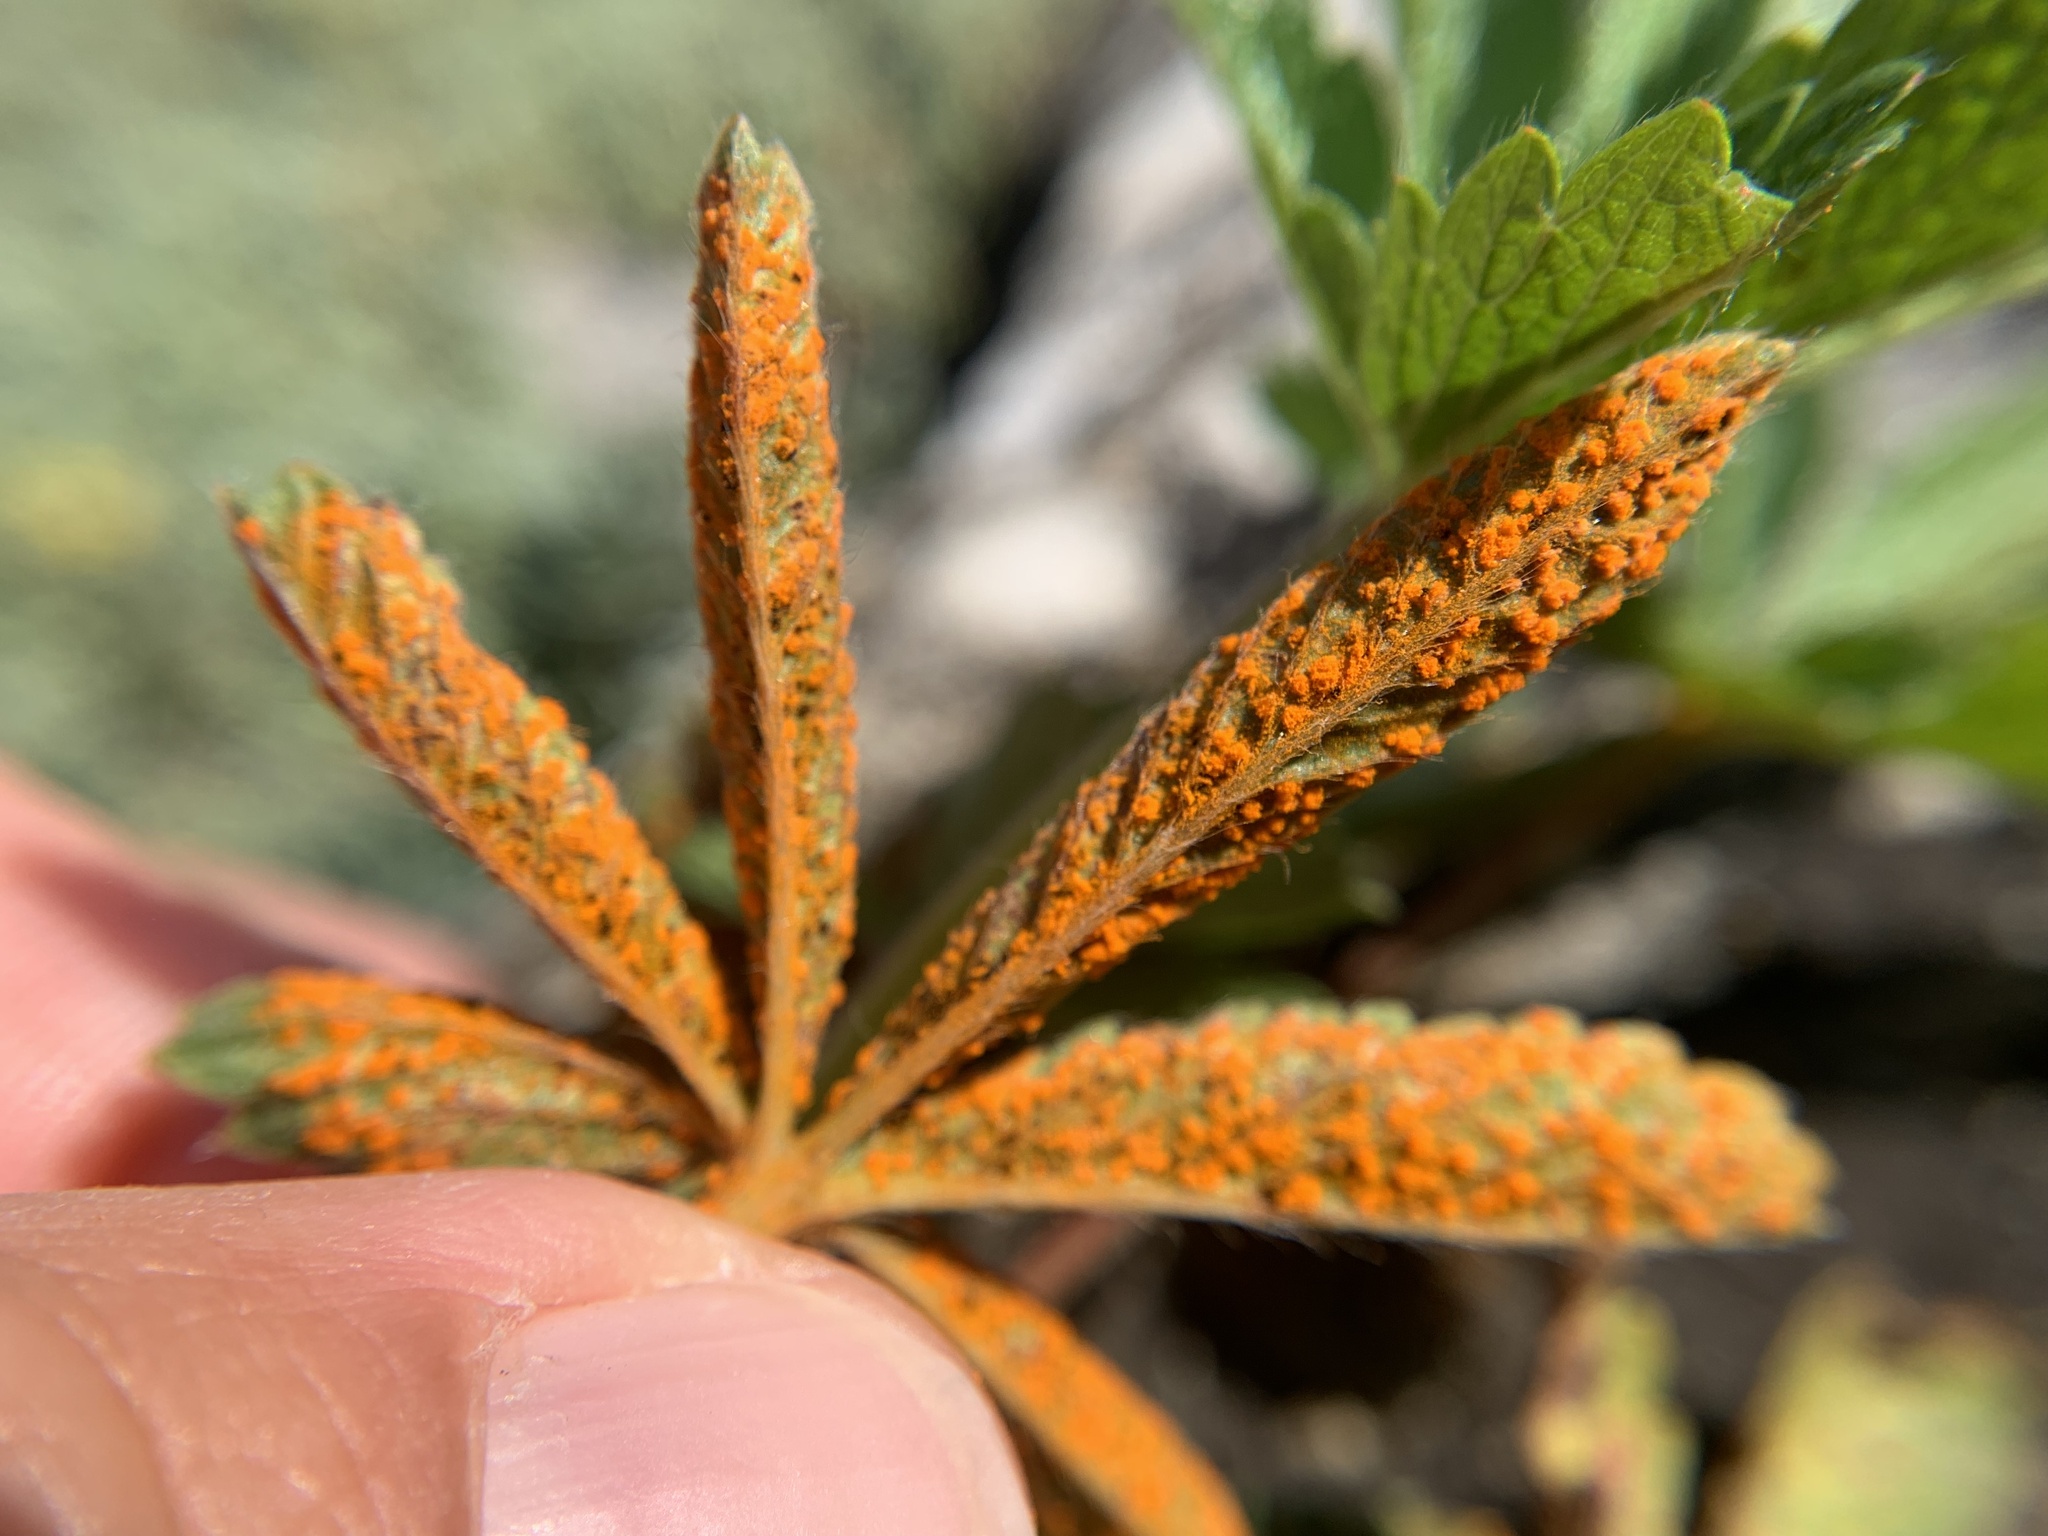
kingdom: Fungi
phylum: Basidiomycota
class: Pucciniomycetes
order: Pucciniales
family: Phragmidiaceae
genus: Phragmidium
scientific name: Phragmidium potentillae
